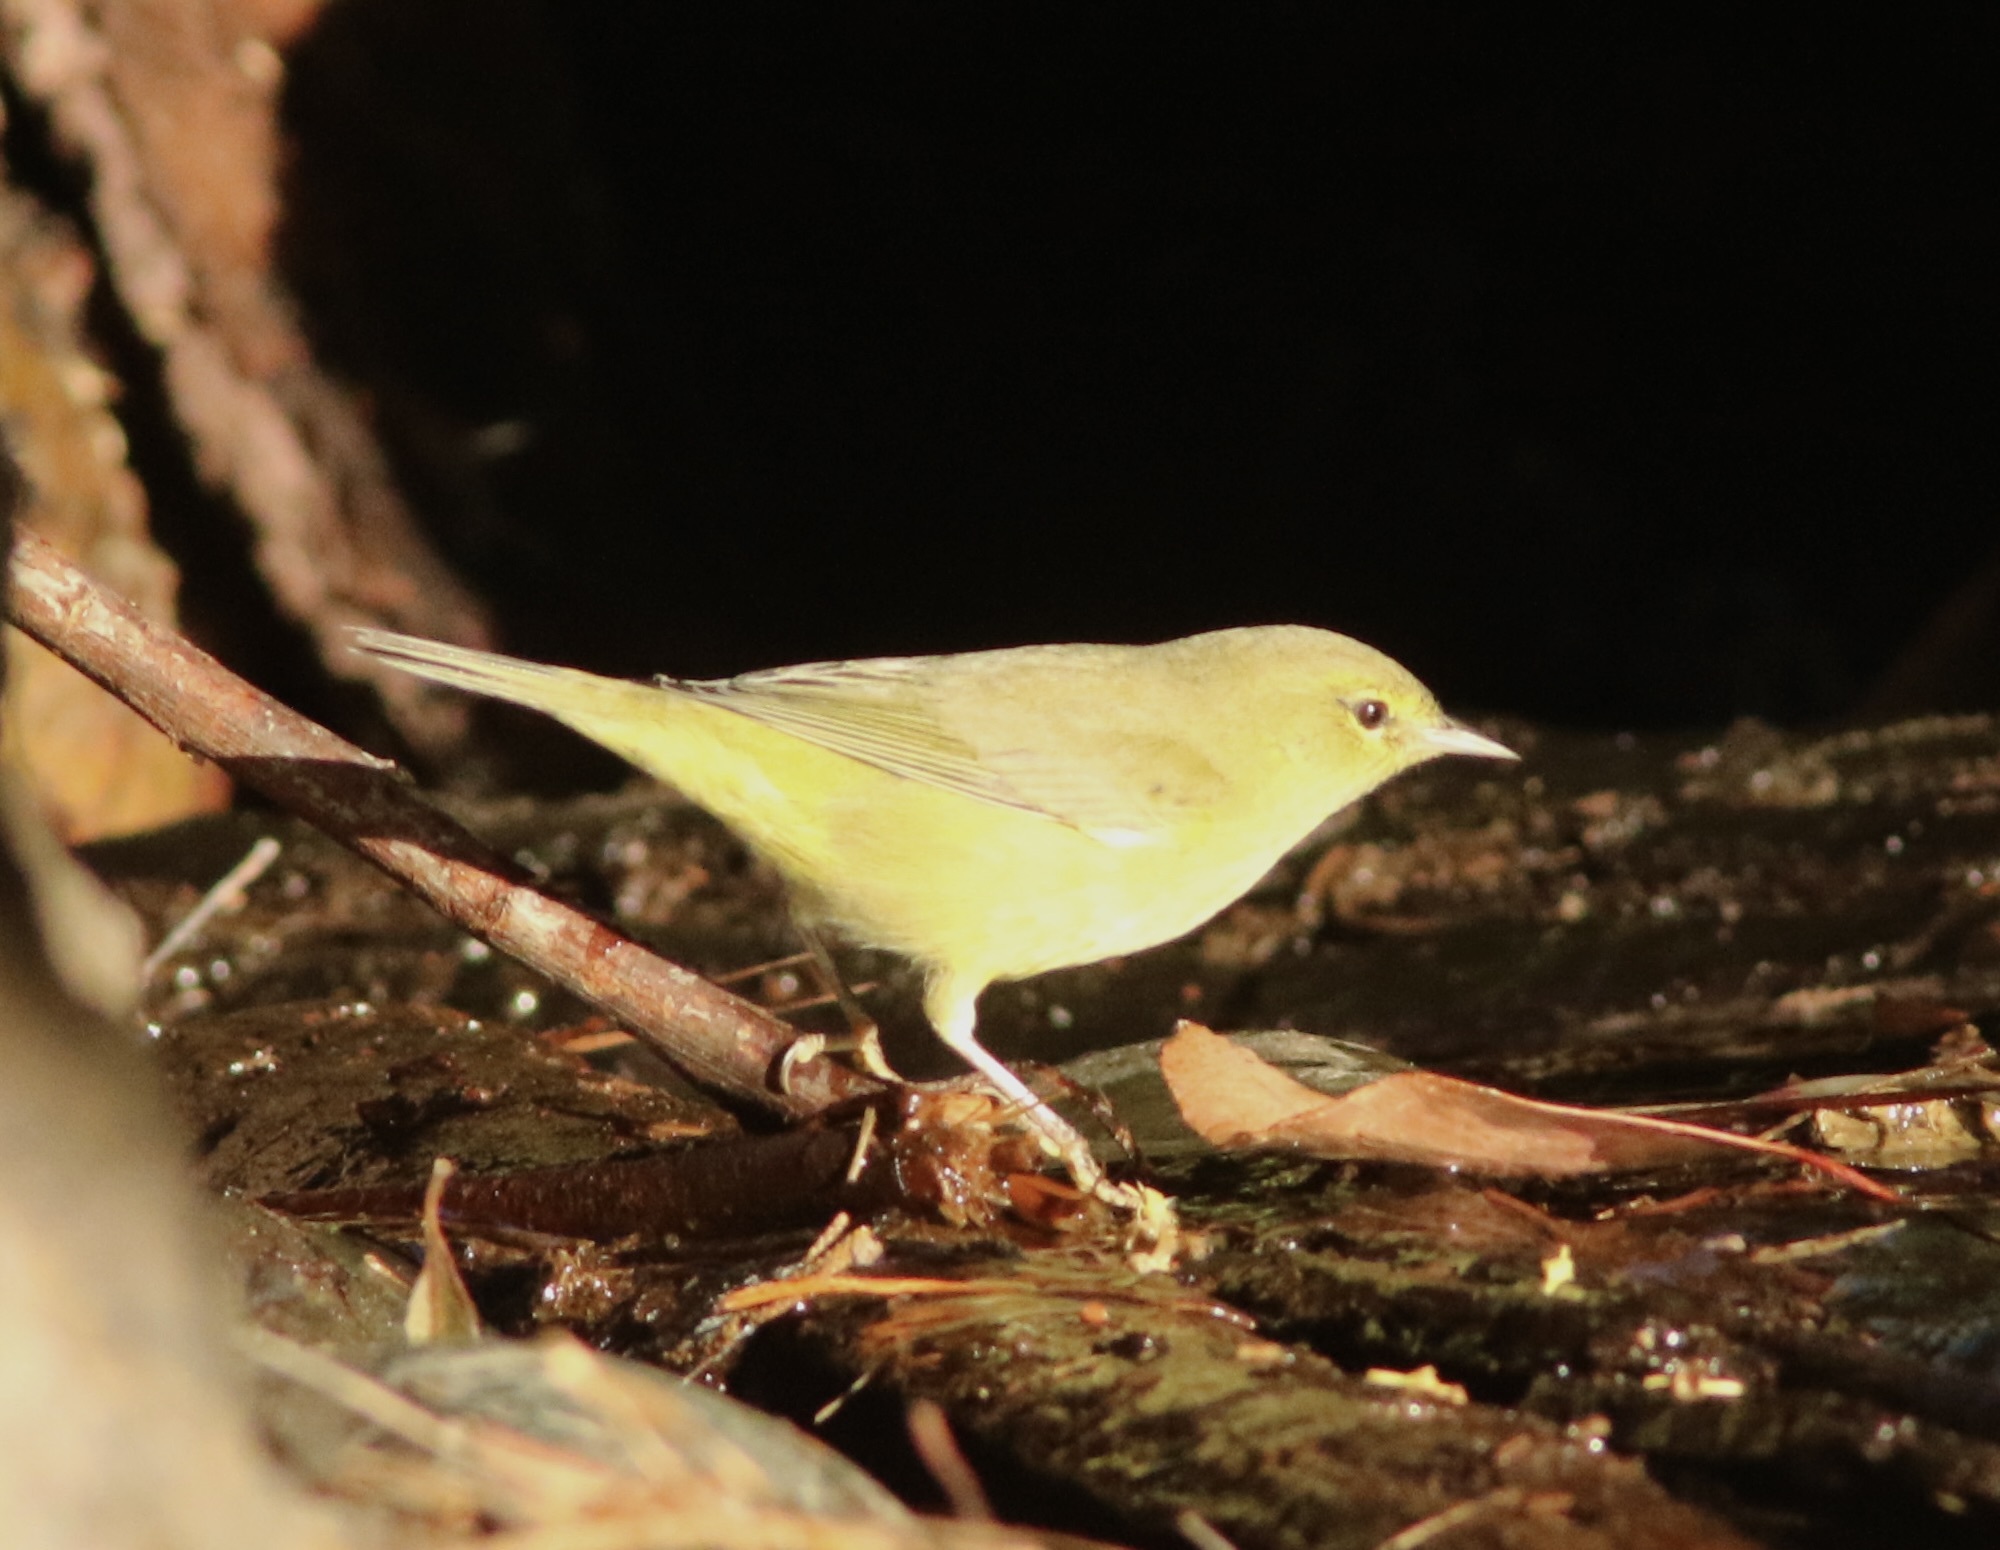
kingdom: Animalia
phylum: Chordata
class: Aves
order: Passeriformes
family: Parulidae
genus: Leiothlypis
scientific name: Leiothlypis celata
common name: Orange-crowned warbler
